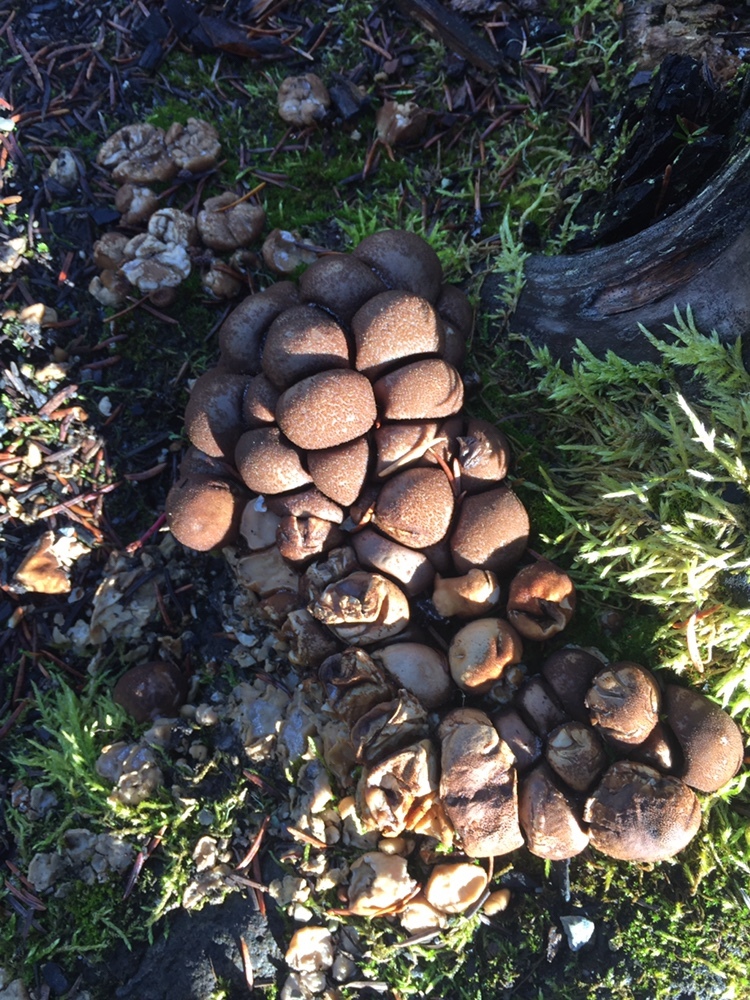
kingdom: Fungi
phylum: Basidiomycota
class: Agaricomycetes
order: Agaricales
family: Lycoperdaceae
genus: Apioperdon
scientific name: Apioperdon pyriforme
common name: Pear-shaped puffball
